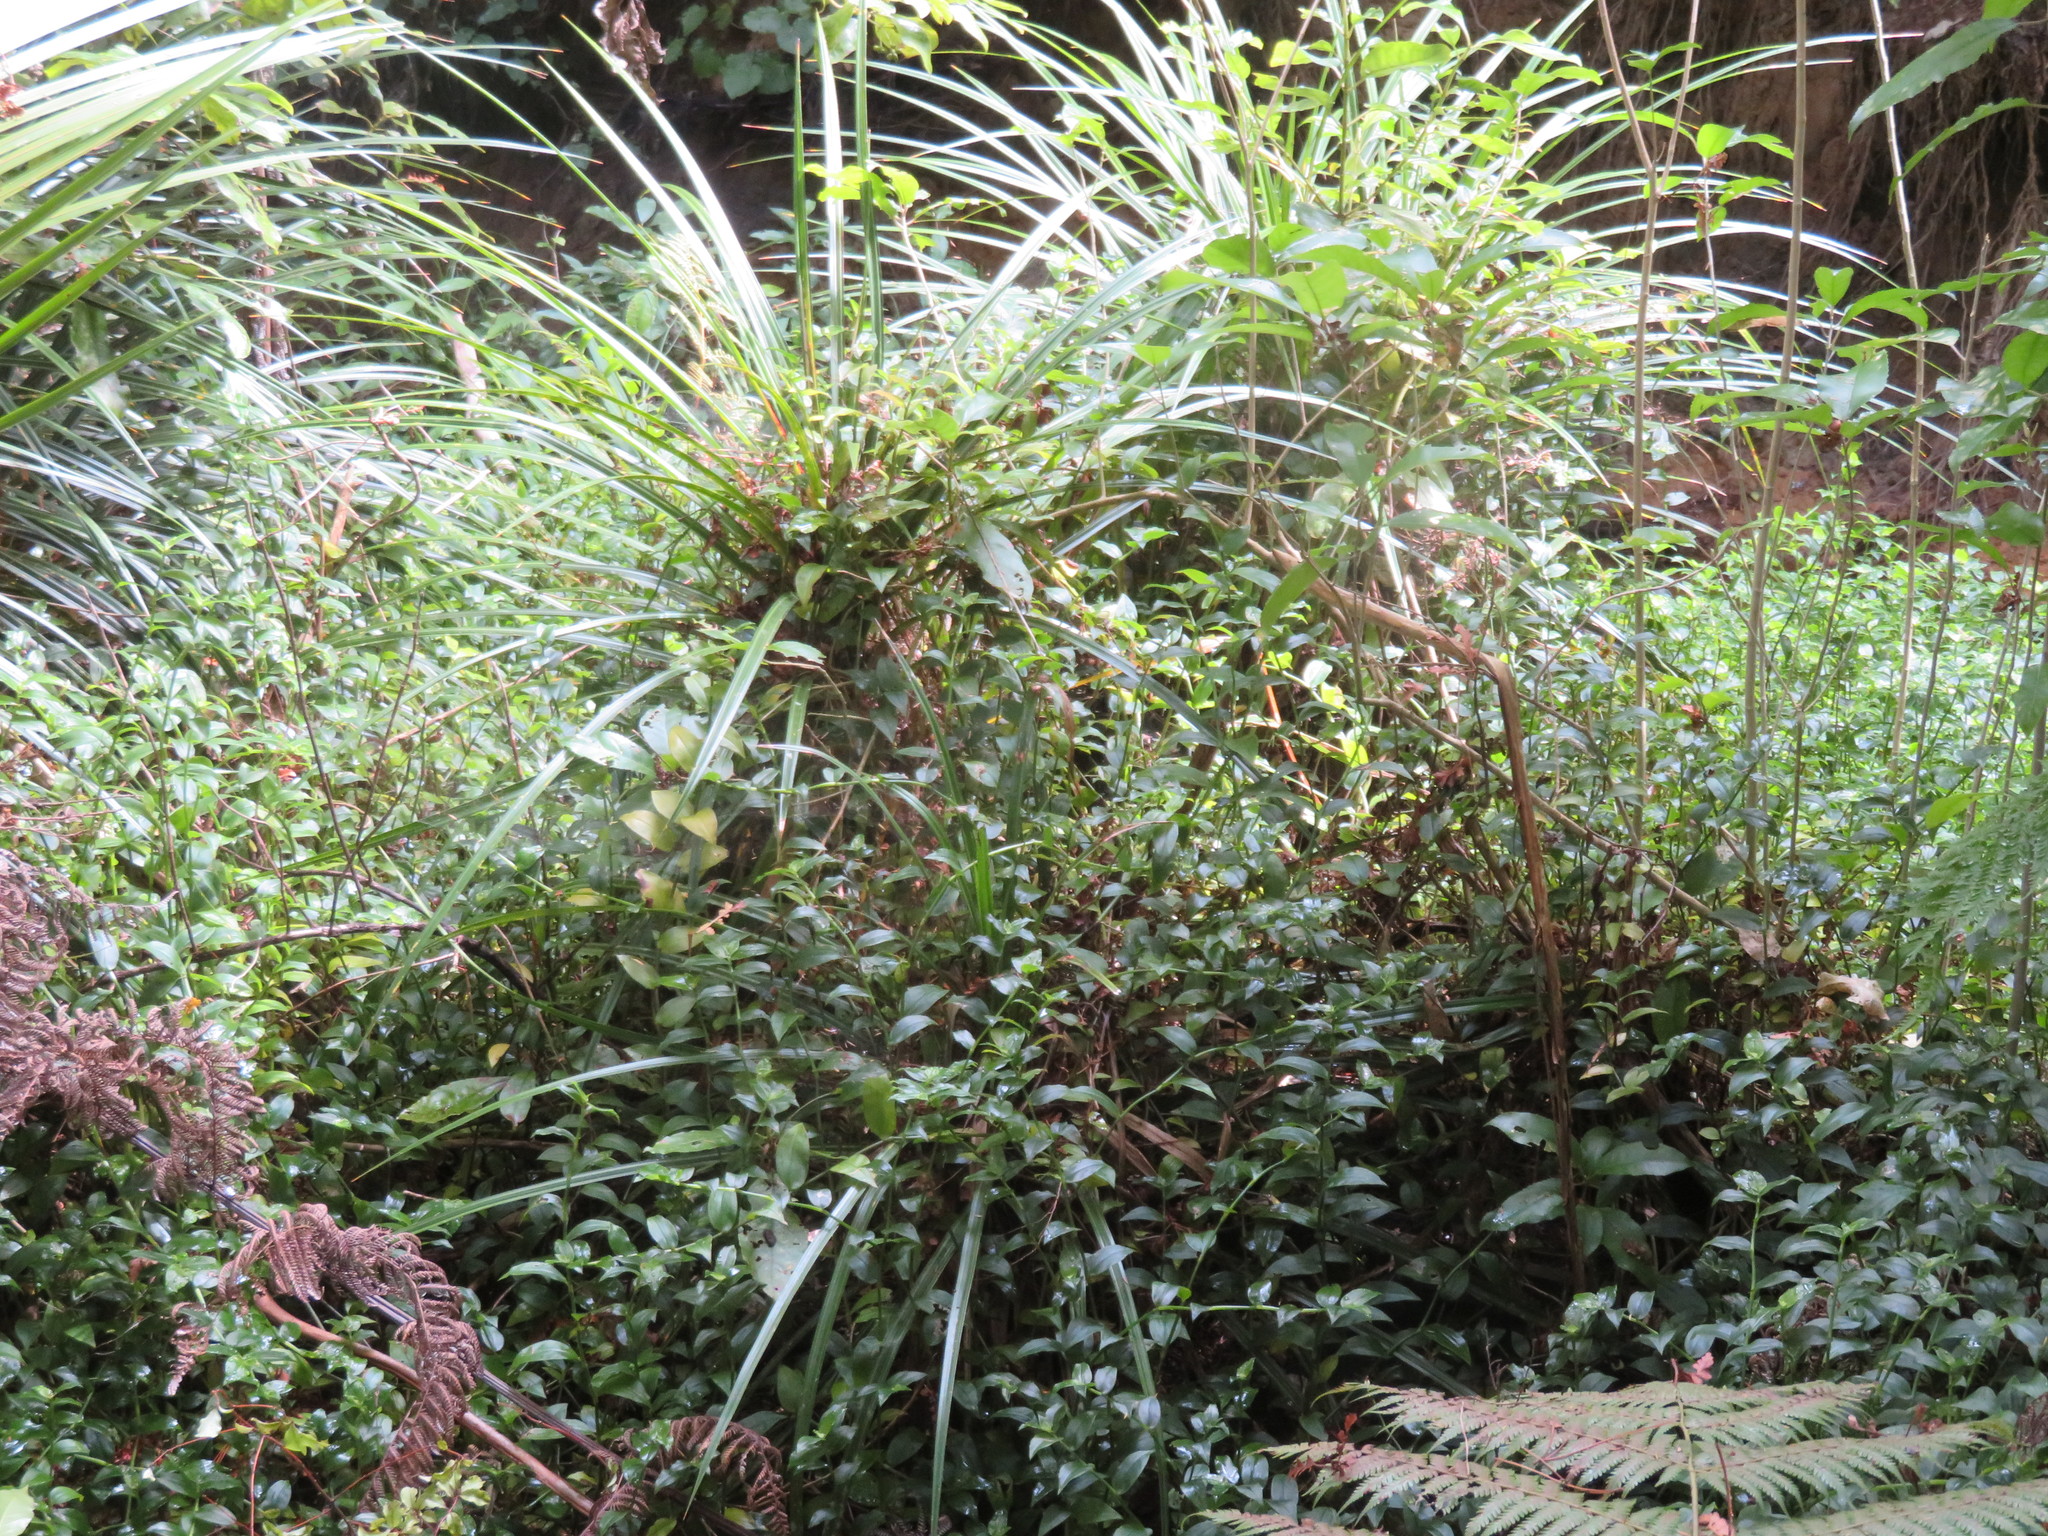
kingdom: Plantae
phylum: Tracheophyta
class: Liliopsida
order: Pandanales
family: Pandanaceae
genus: Freycinetia
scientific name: Freycinetia banksii
